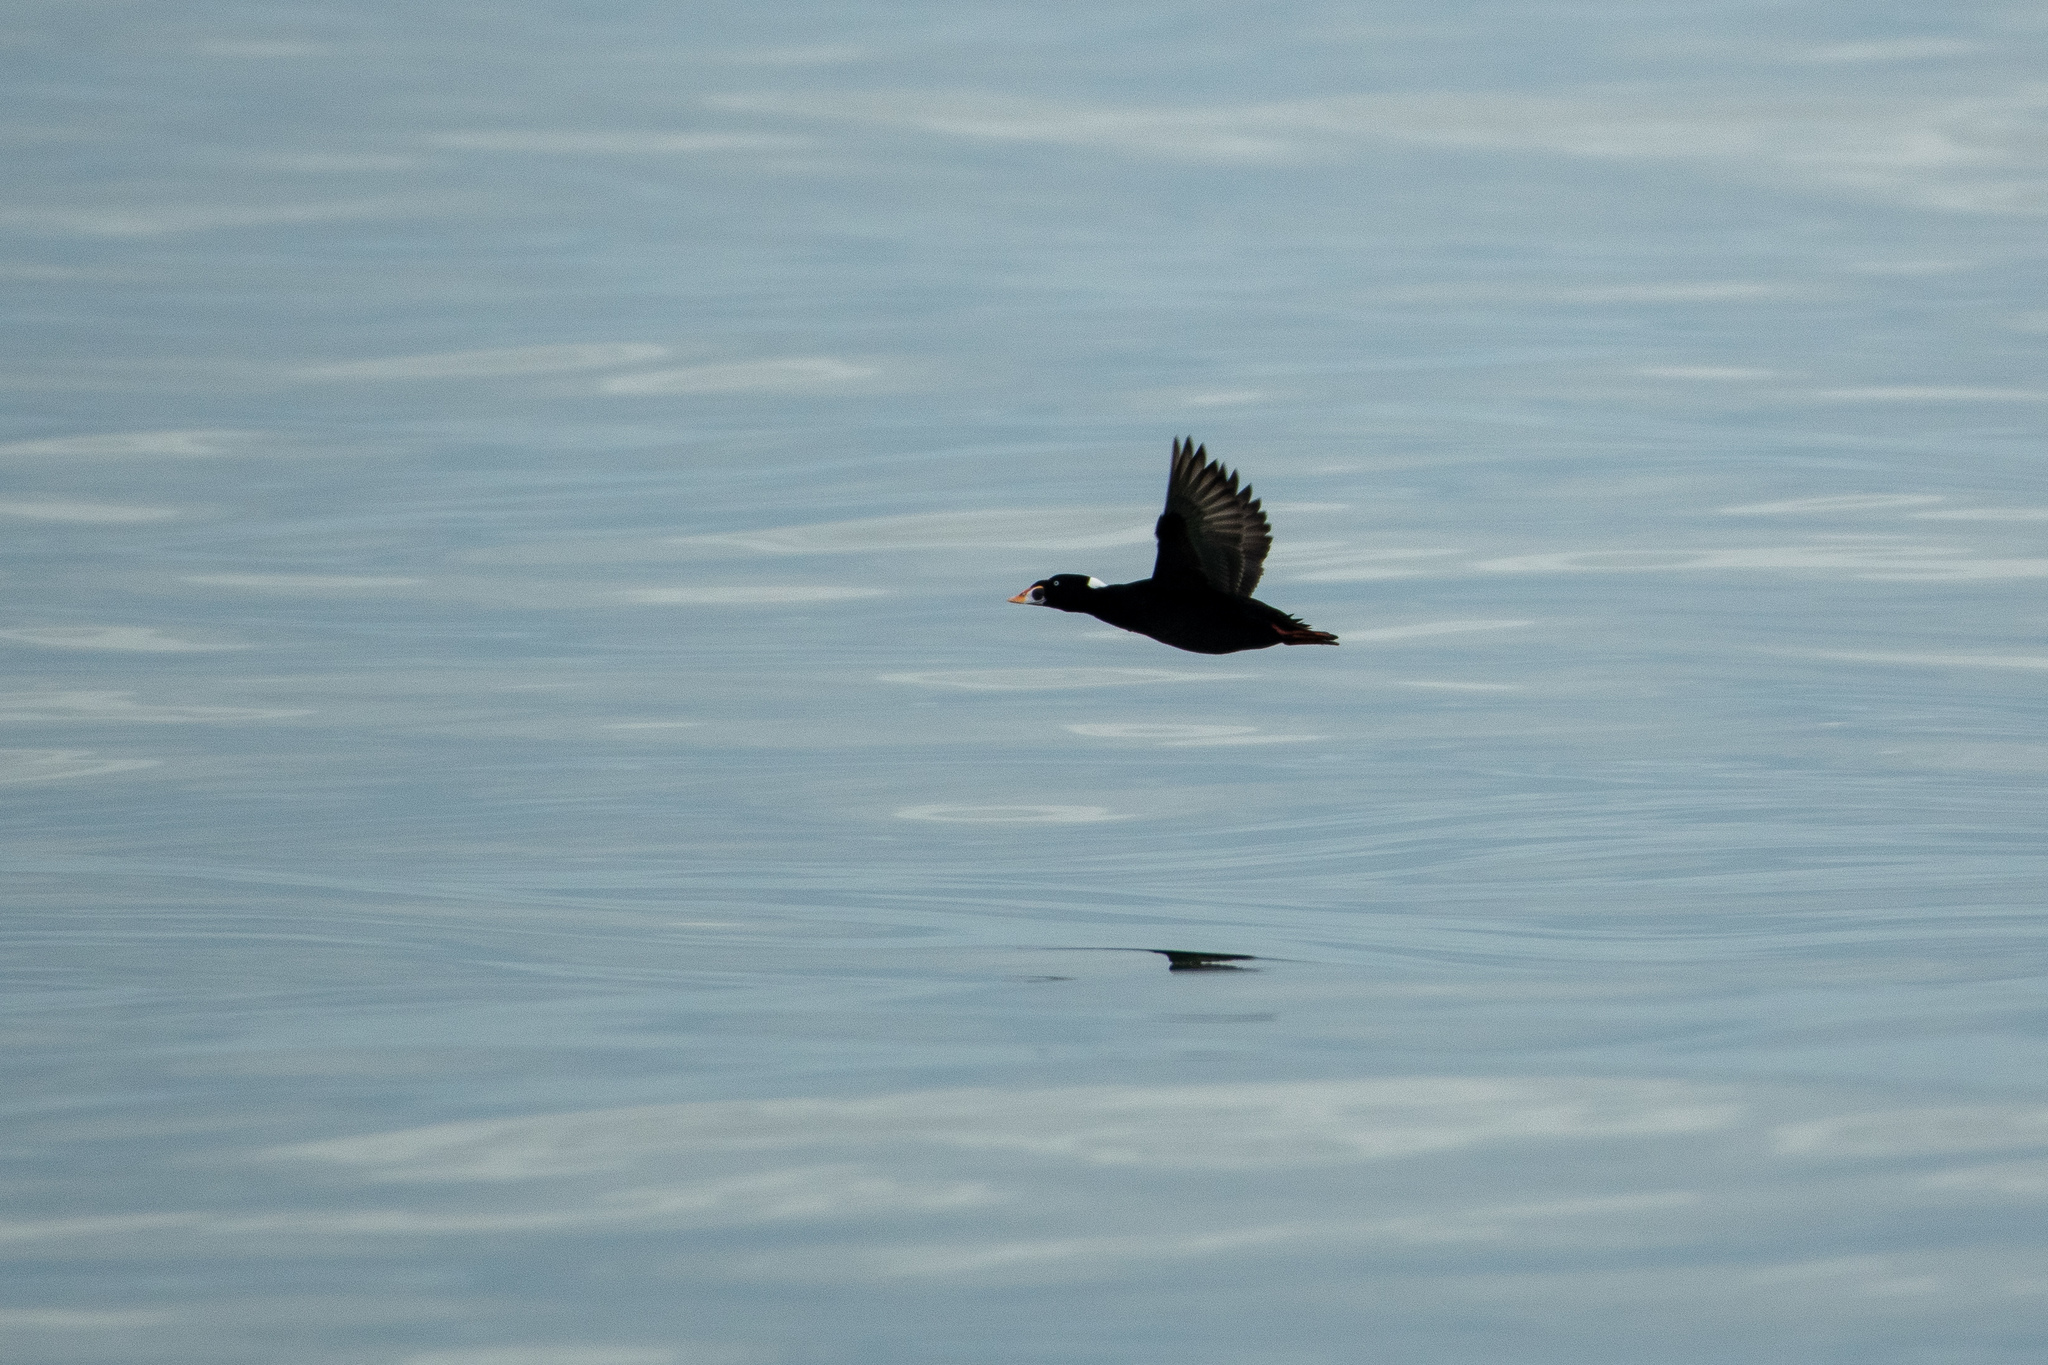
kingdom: Animalia
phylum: Chordata
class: Aves
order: Anseriformes
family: Anatidae
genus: Melanitta
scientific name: Melanitta perspicillata
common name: Surf scoter
